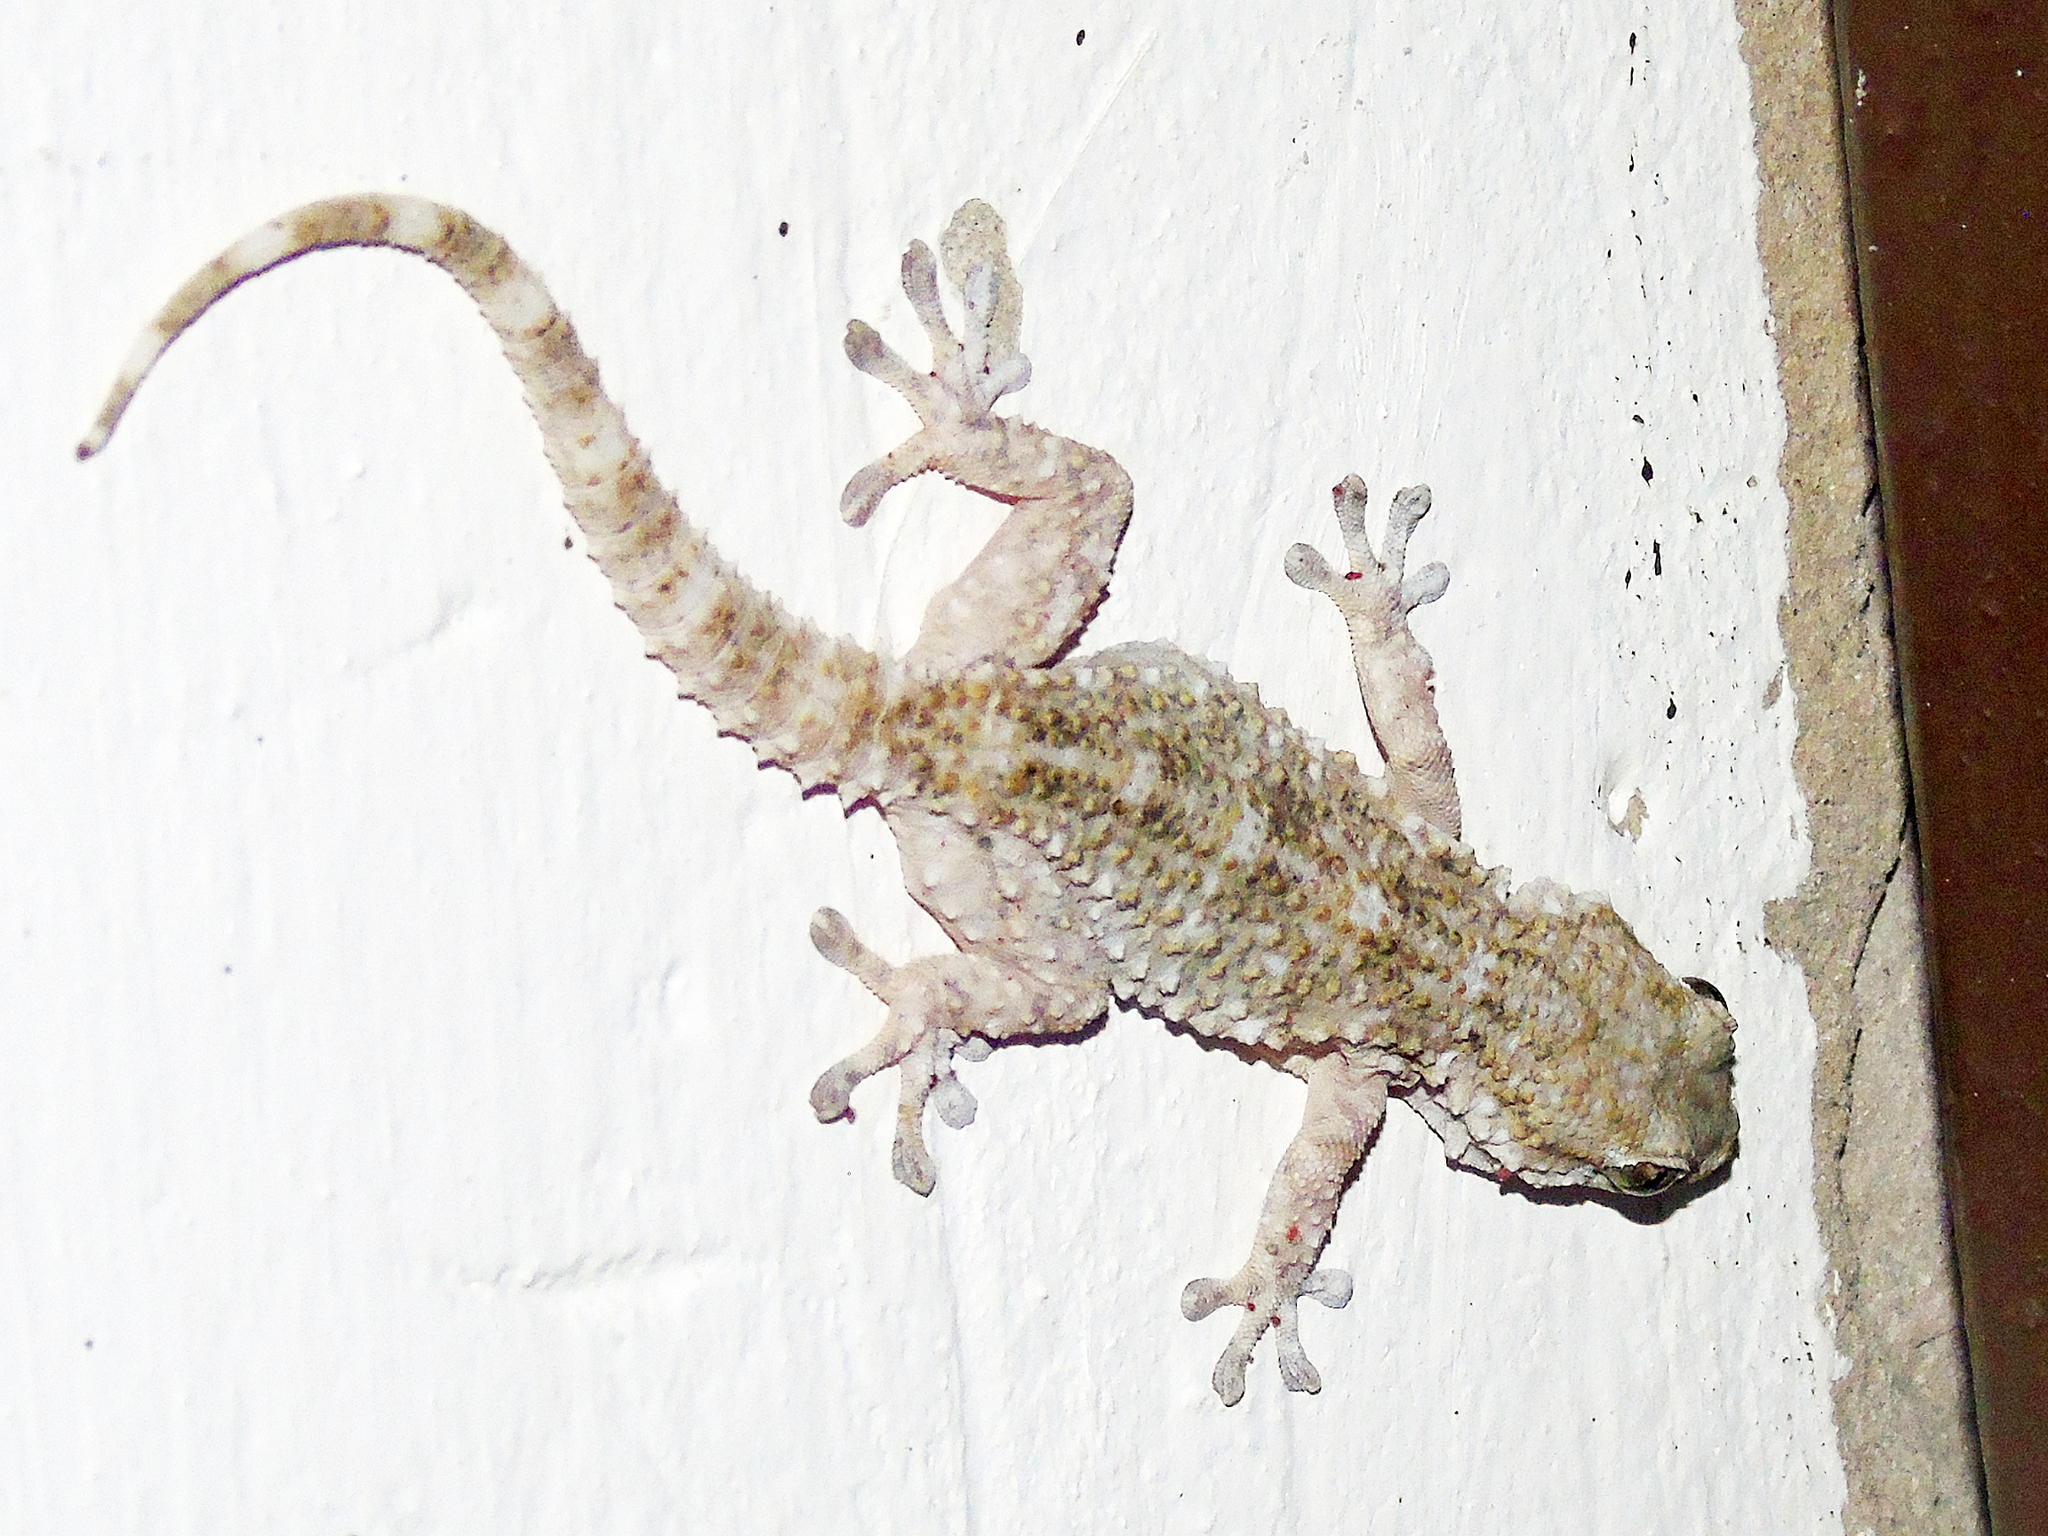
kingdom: Animalia
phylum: Chordata
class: Squamata
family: Phyllodactylidae
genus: Tarentola
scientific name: Tarentola mauritanica
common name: Moorish gecko
